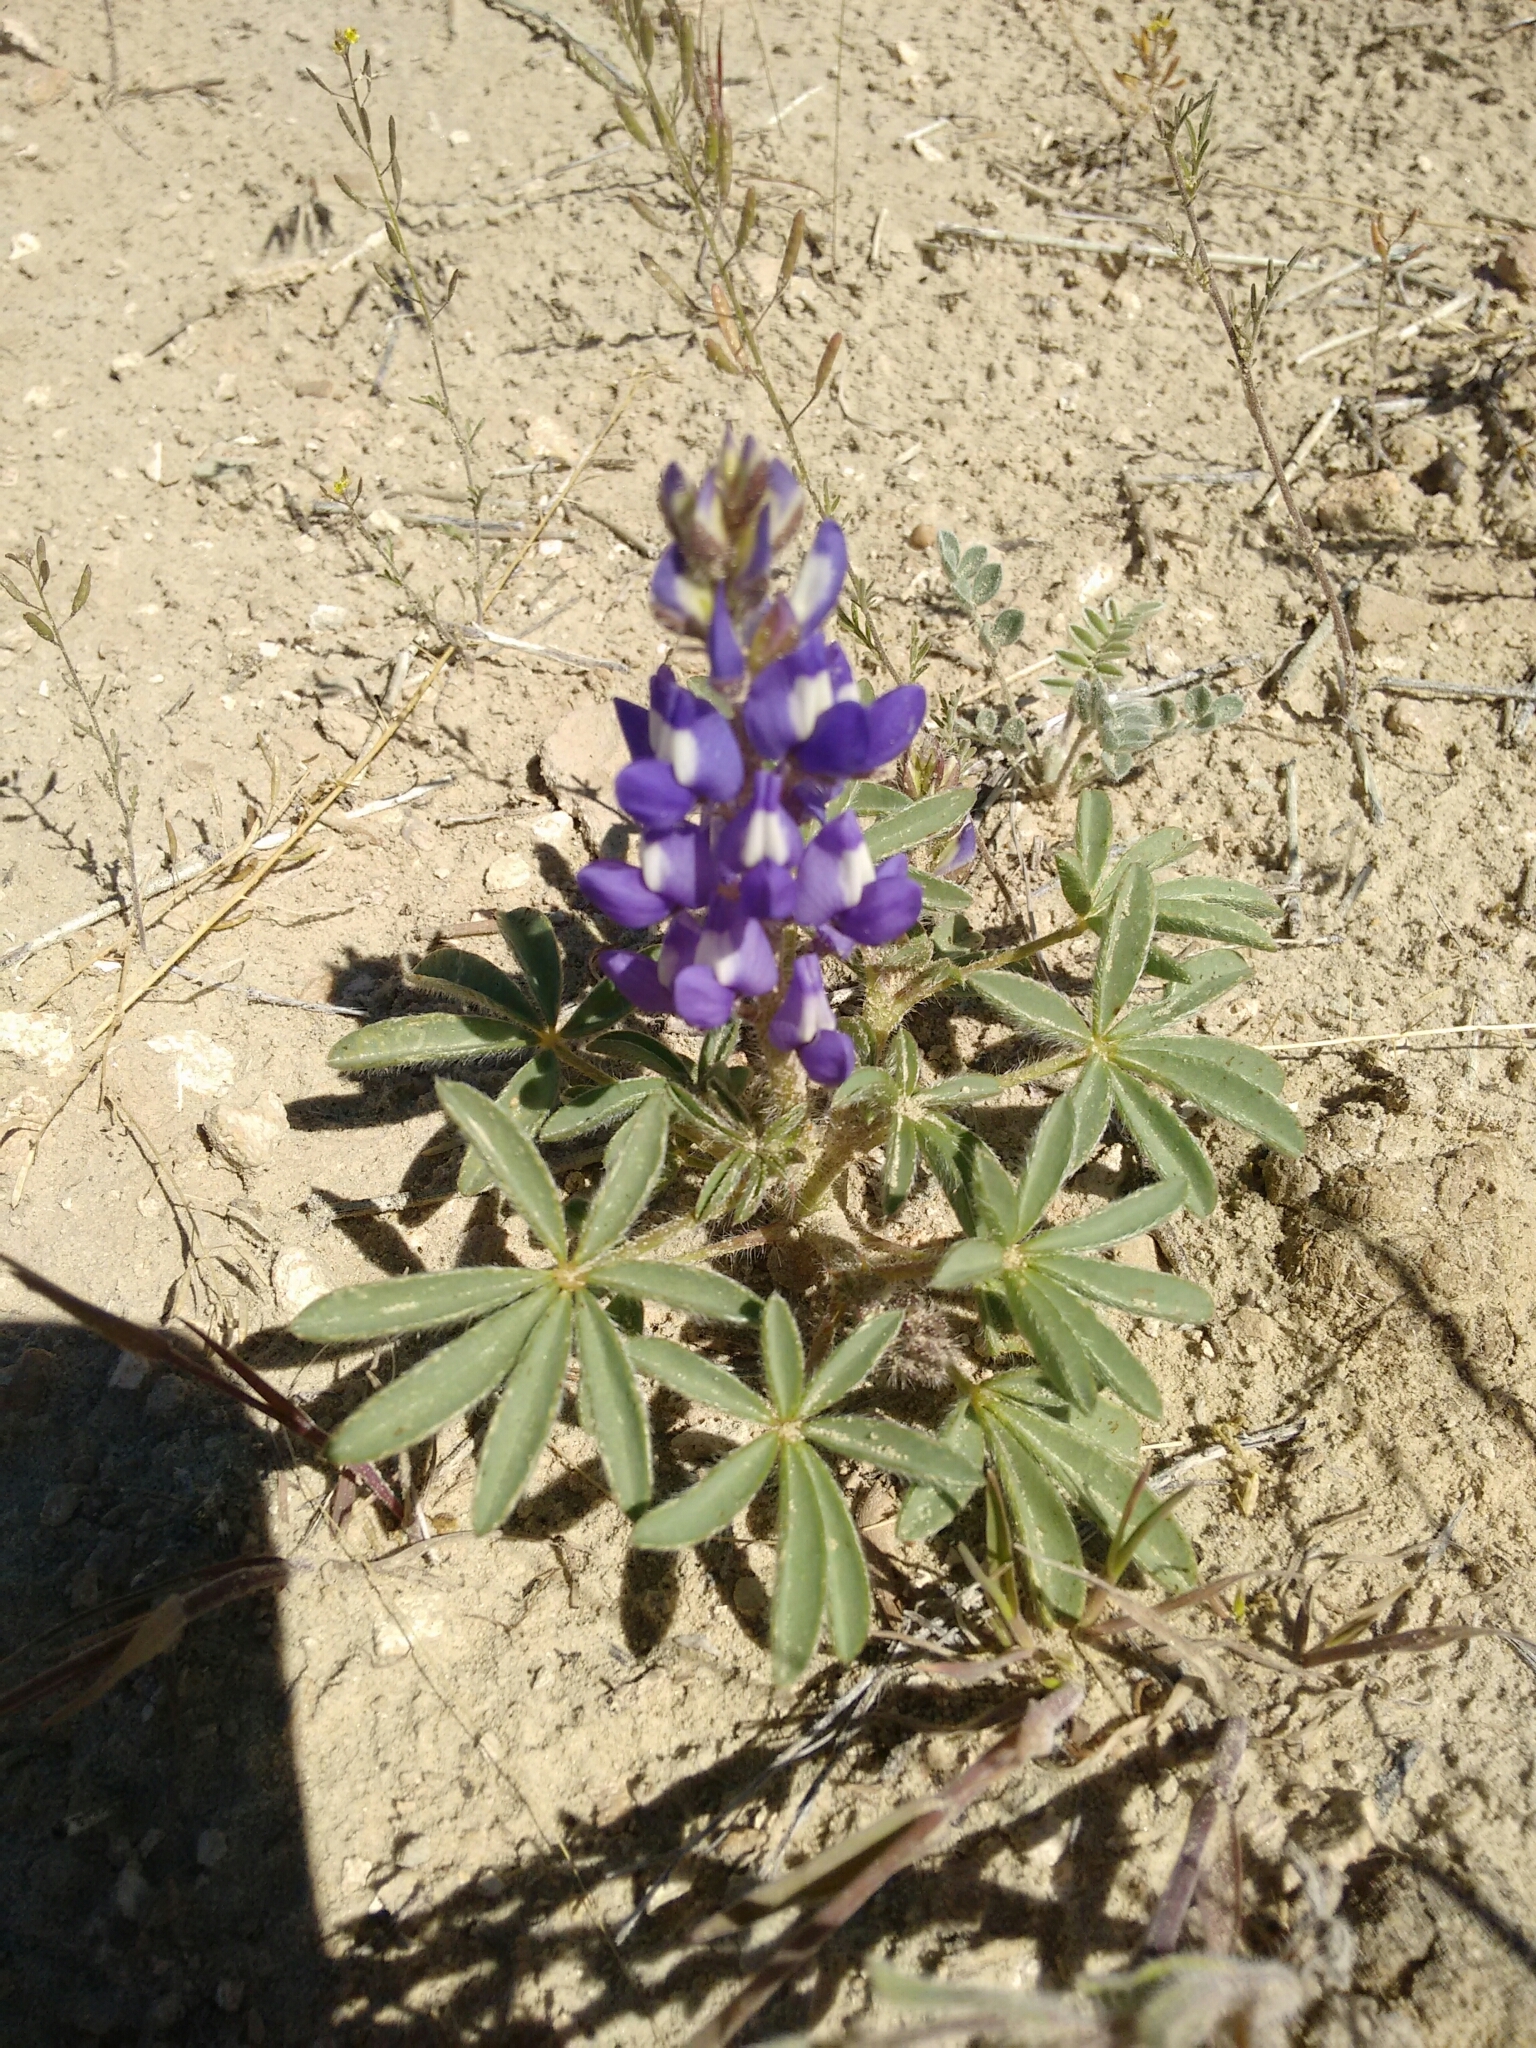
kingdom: Plantae
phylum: Tracheophyta
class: Magnoliopsida
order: Fabales
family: Fabaceae
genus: Lupinus
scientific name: Lupinus pusillus
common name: Low lupine
